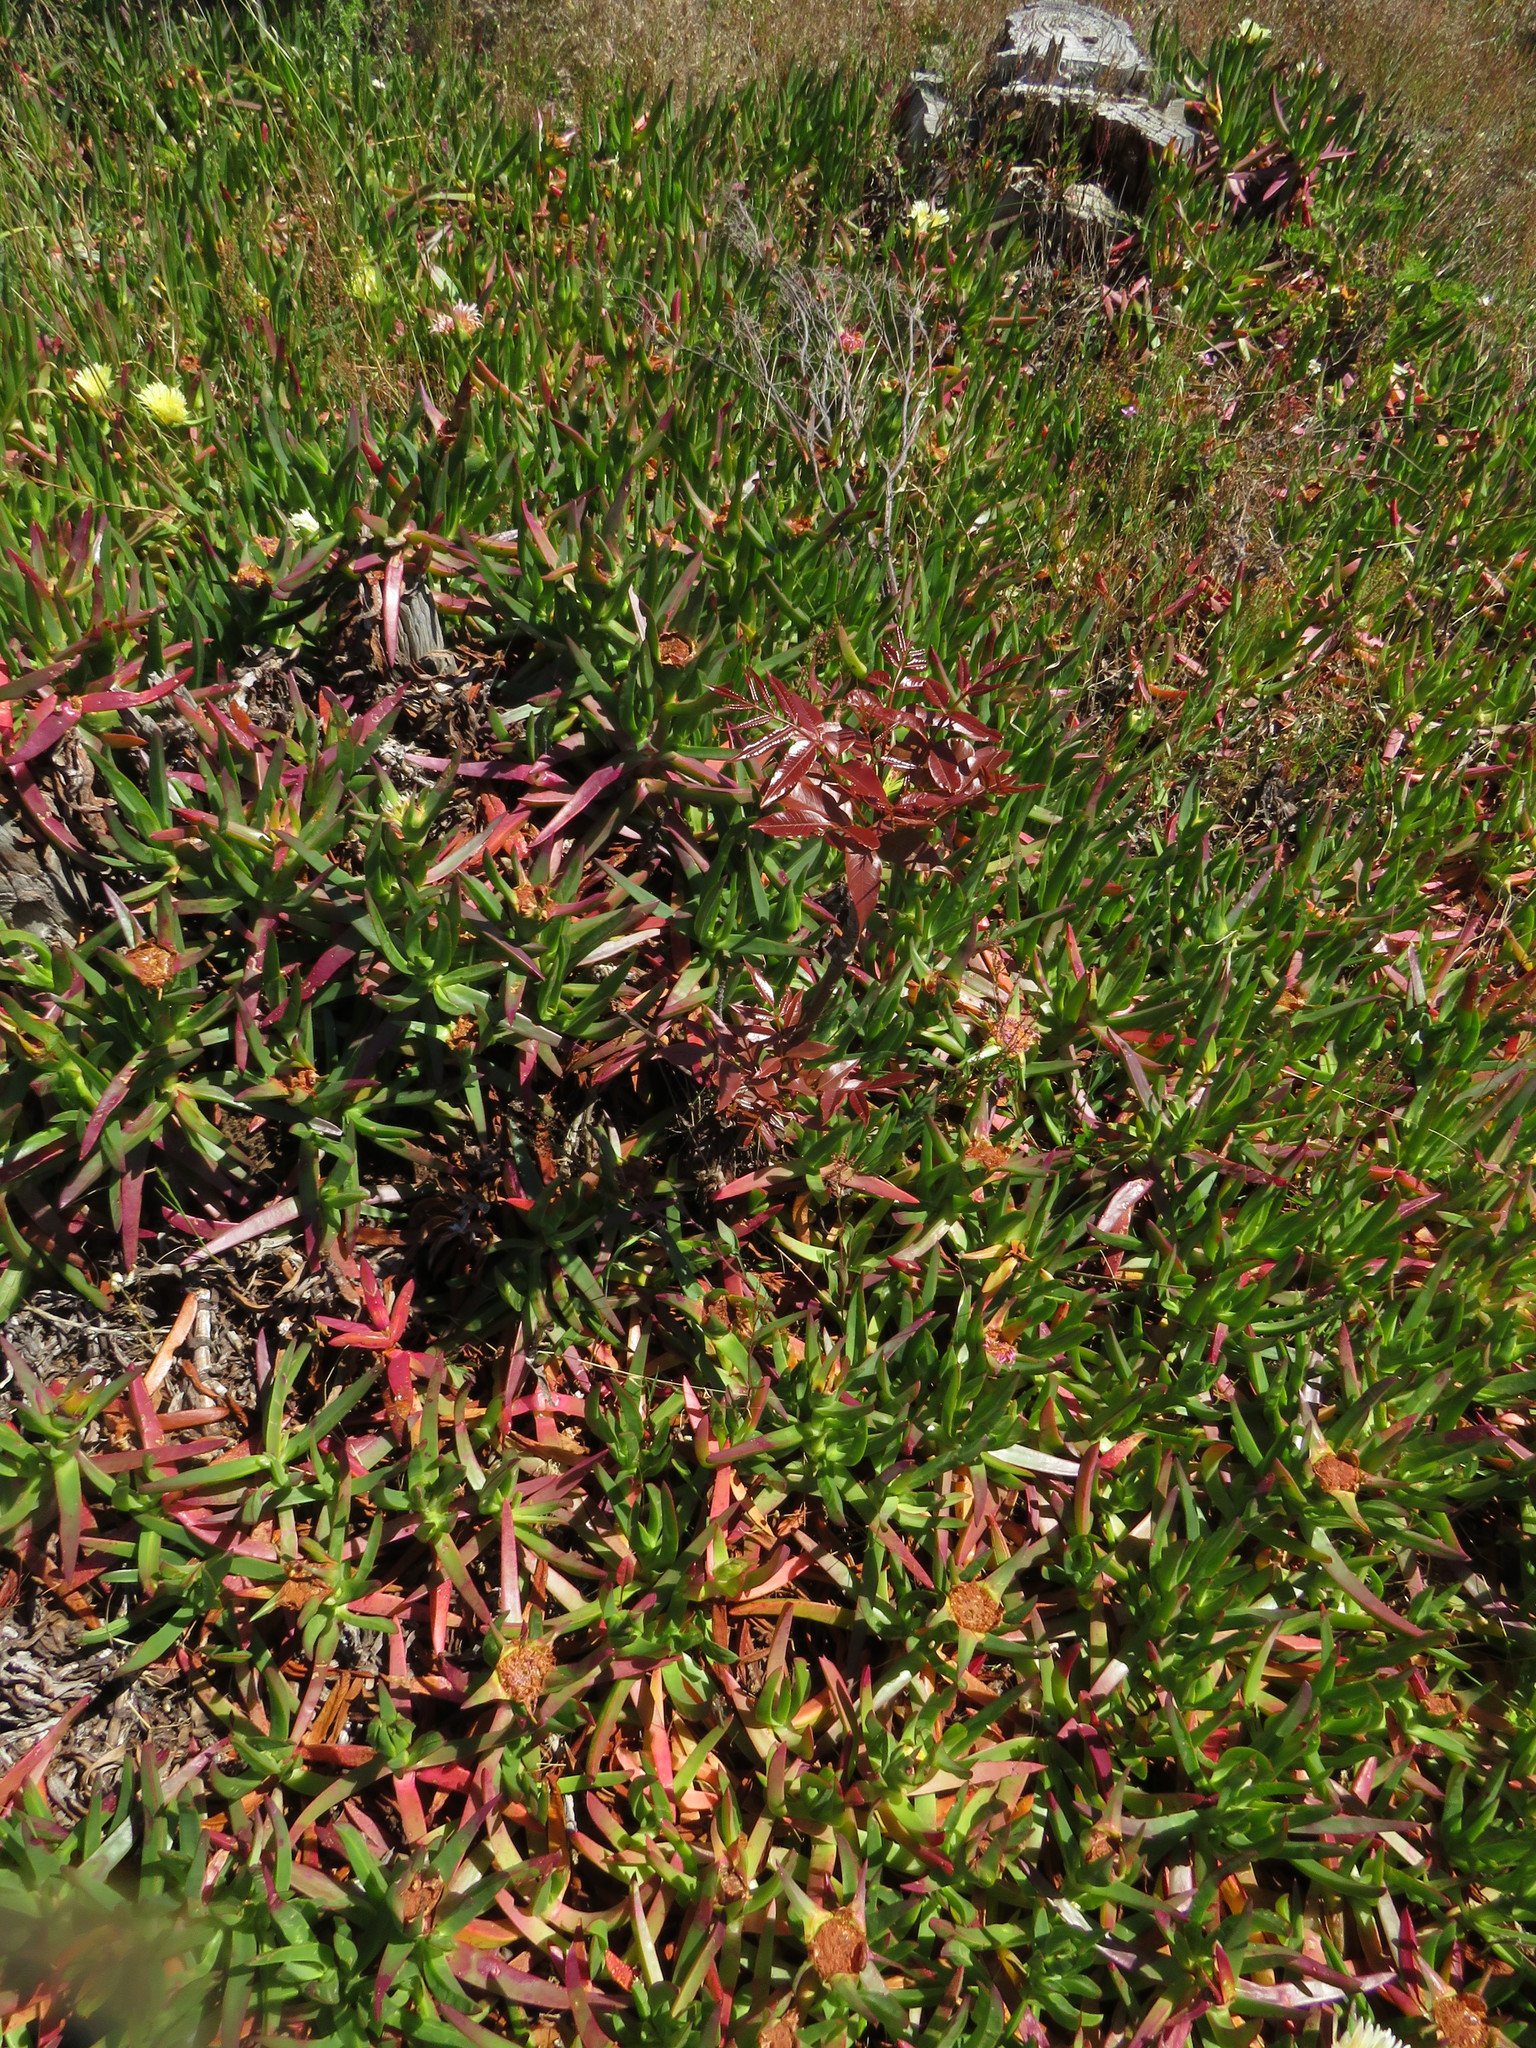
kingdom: Plantae
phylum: Tracheophyta
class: Magnoliopsida
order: Sapindales
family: Meliaceae
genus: Ekebergia
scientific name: Ekebergia capensis
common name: Cape-ash
